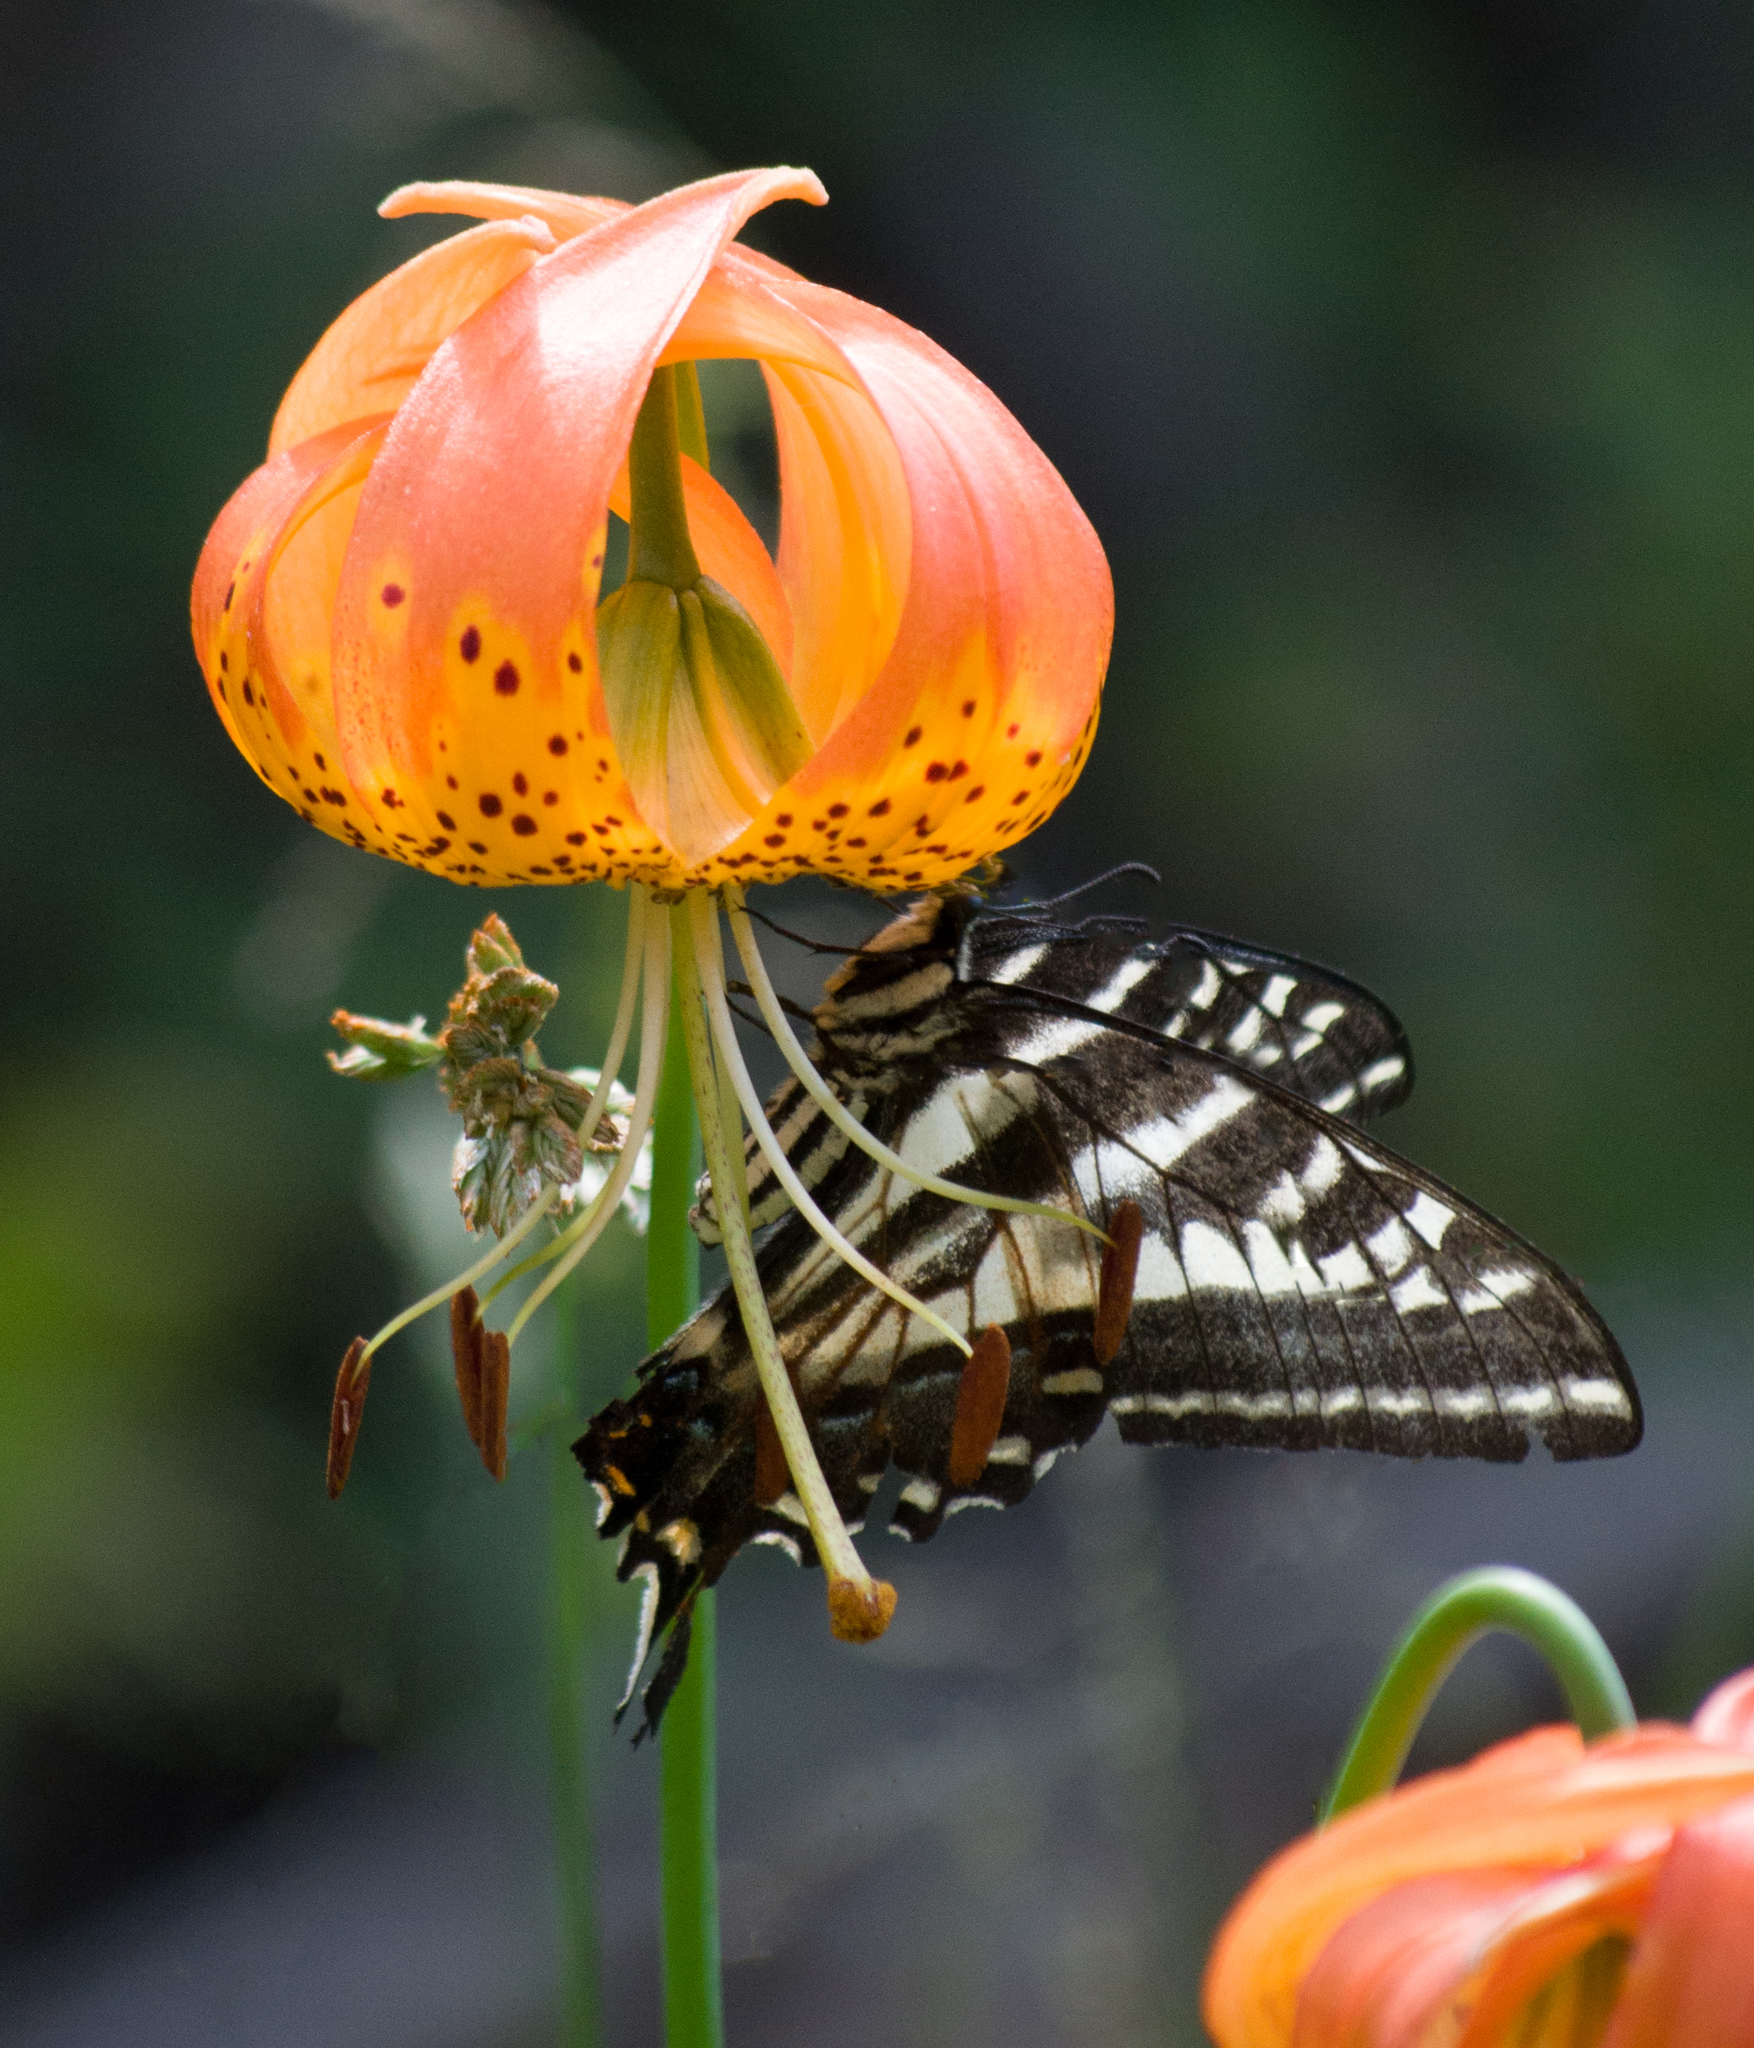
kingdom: Plantae
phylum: Tracheophyta
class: Liliopsida
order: Liliales
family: Liliaceae
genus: Lilium
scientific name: Lilium pardalinum
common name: Panther lily
